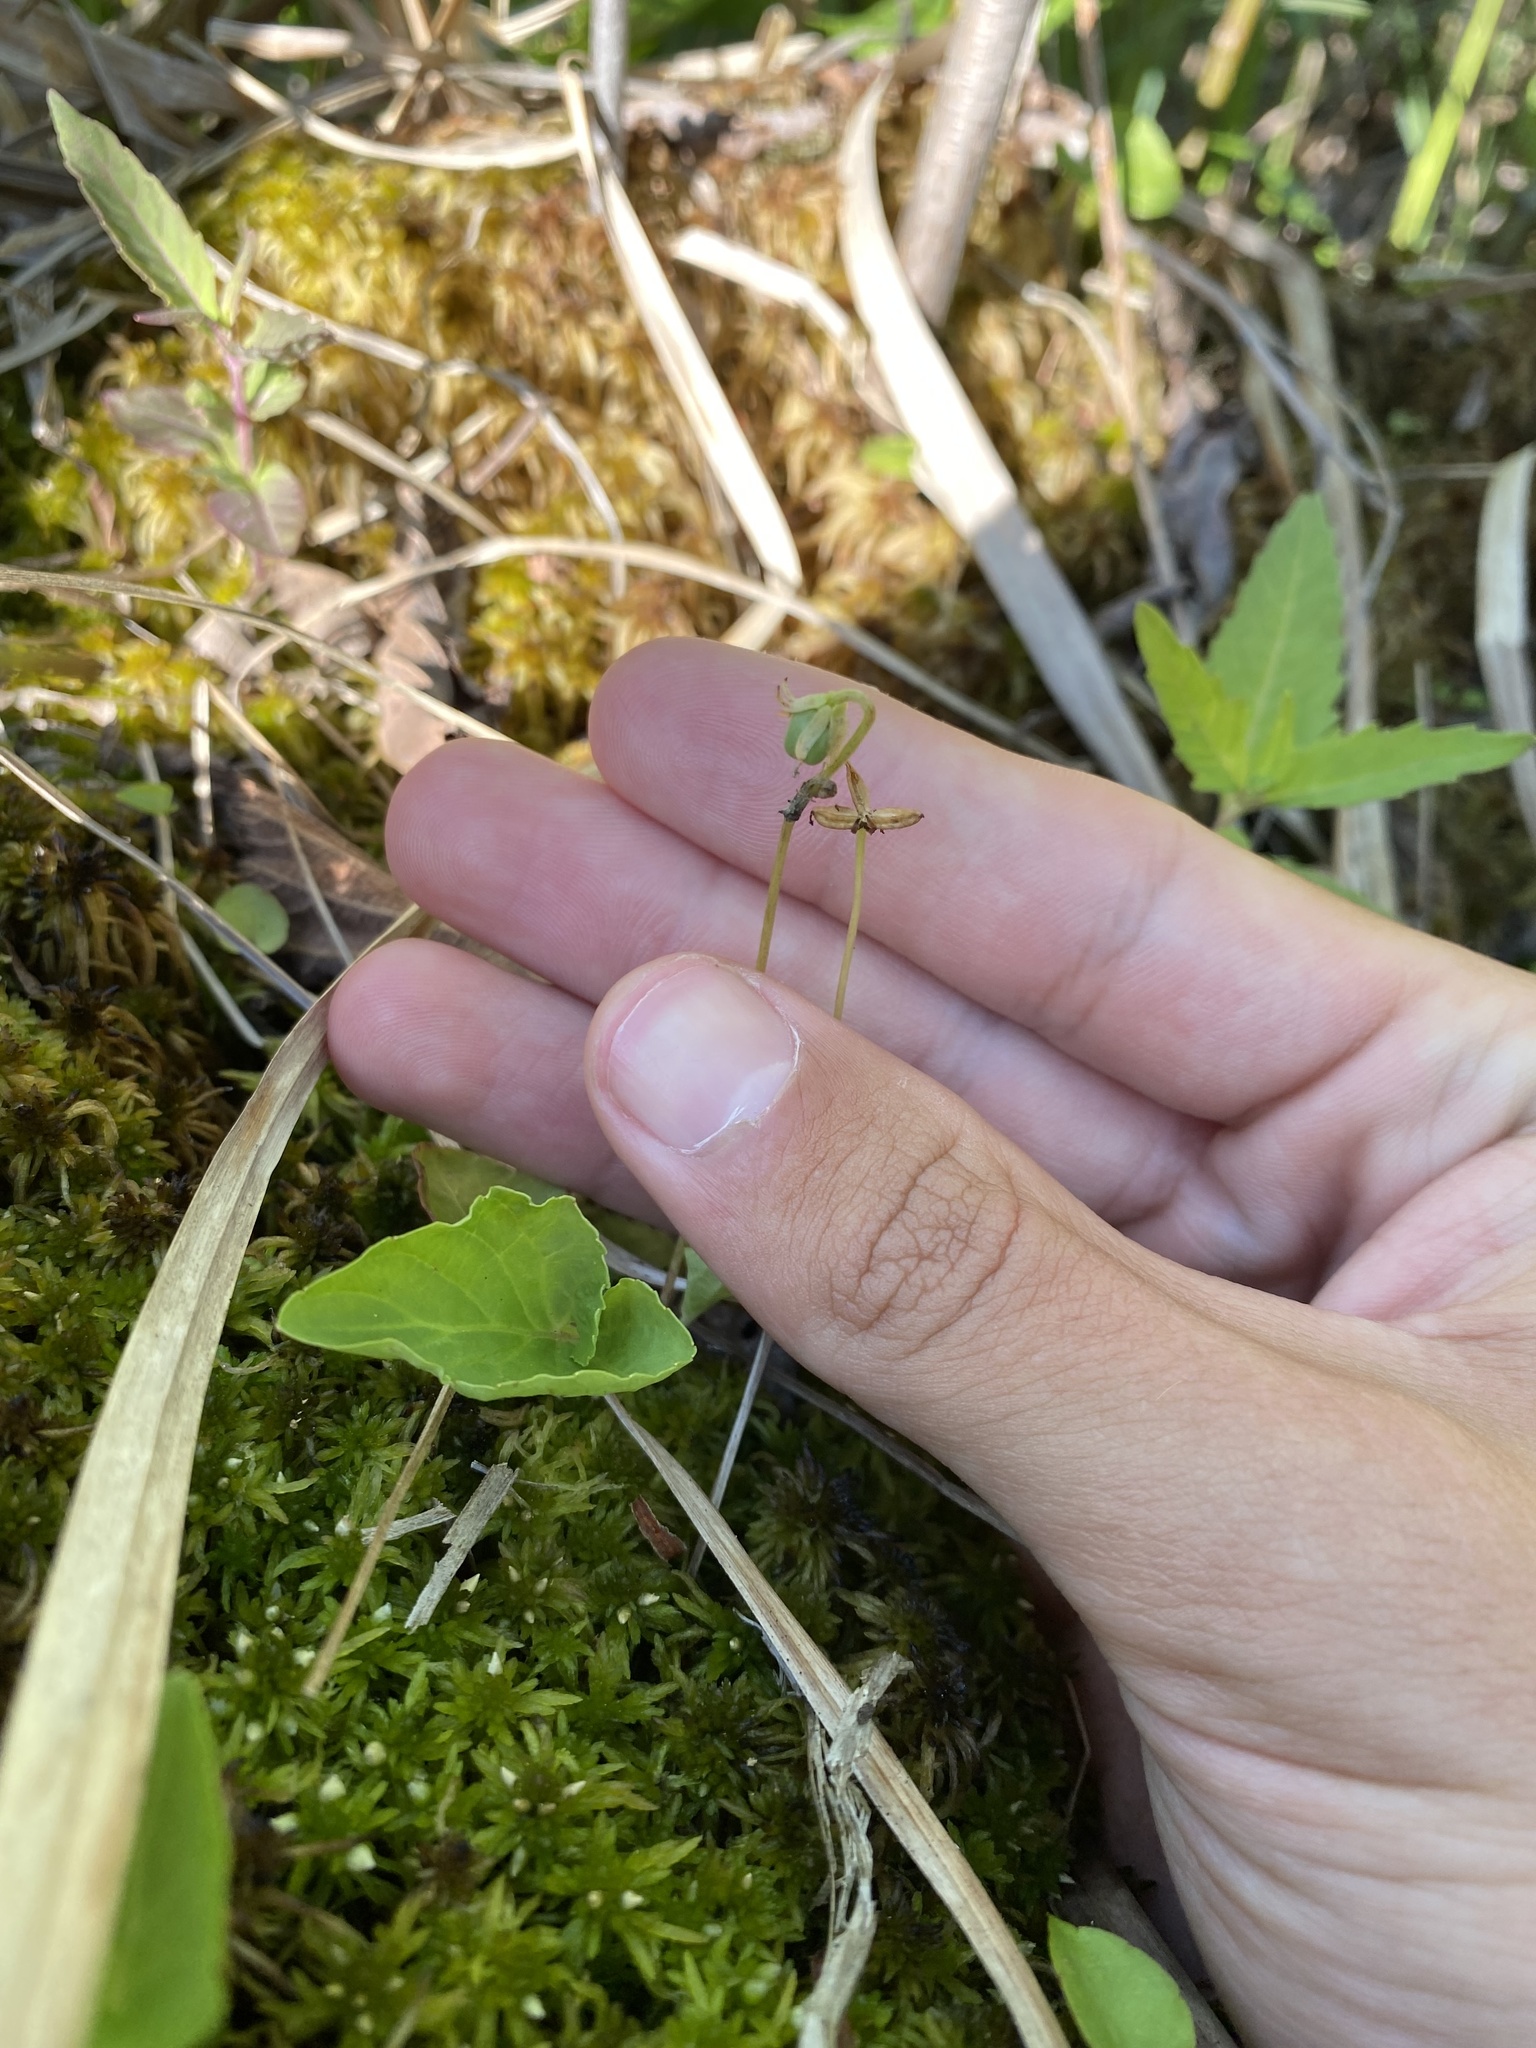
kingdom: Plantae
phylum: Tracheophyta
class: Magnoliopsida
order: Malpighiales
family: Violaceae
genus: Viola
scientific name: Viola minuscula
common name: Northern white violet
